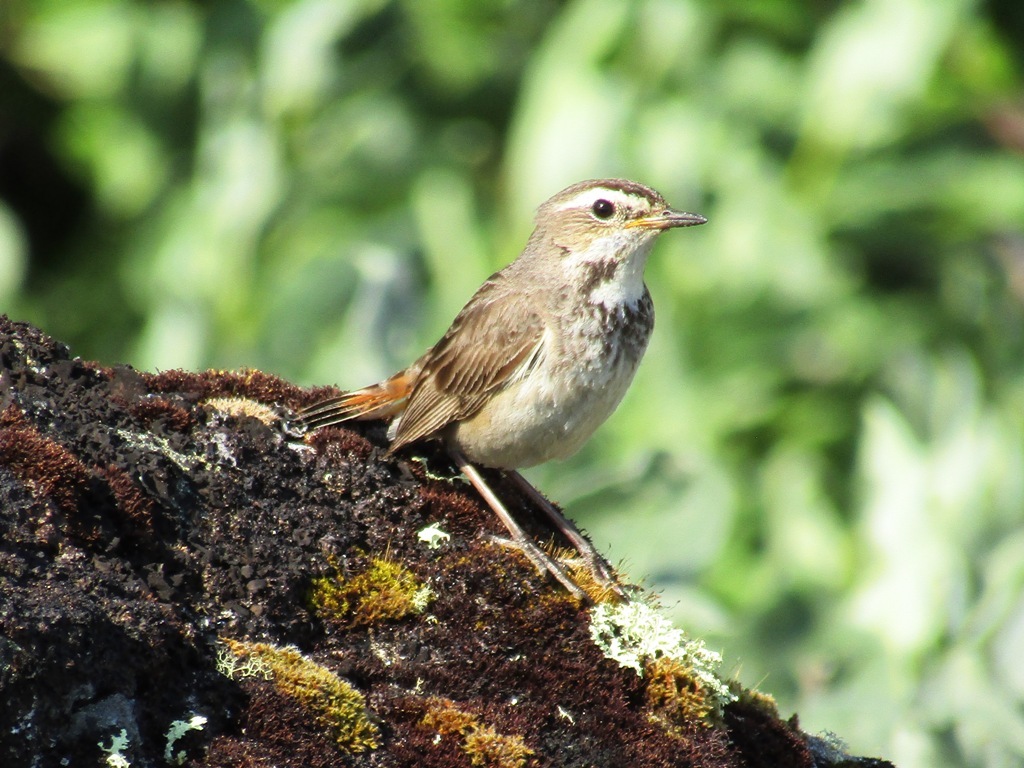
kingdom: Animalia
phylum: Chordata
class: Aves
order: Passeriformes
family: Muscicapidae
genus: Luscinia
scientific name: Luscinia svecica
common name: Bluethroat
